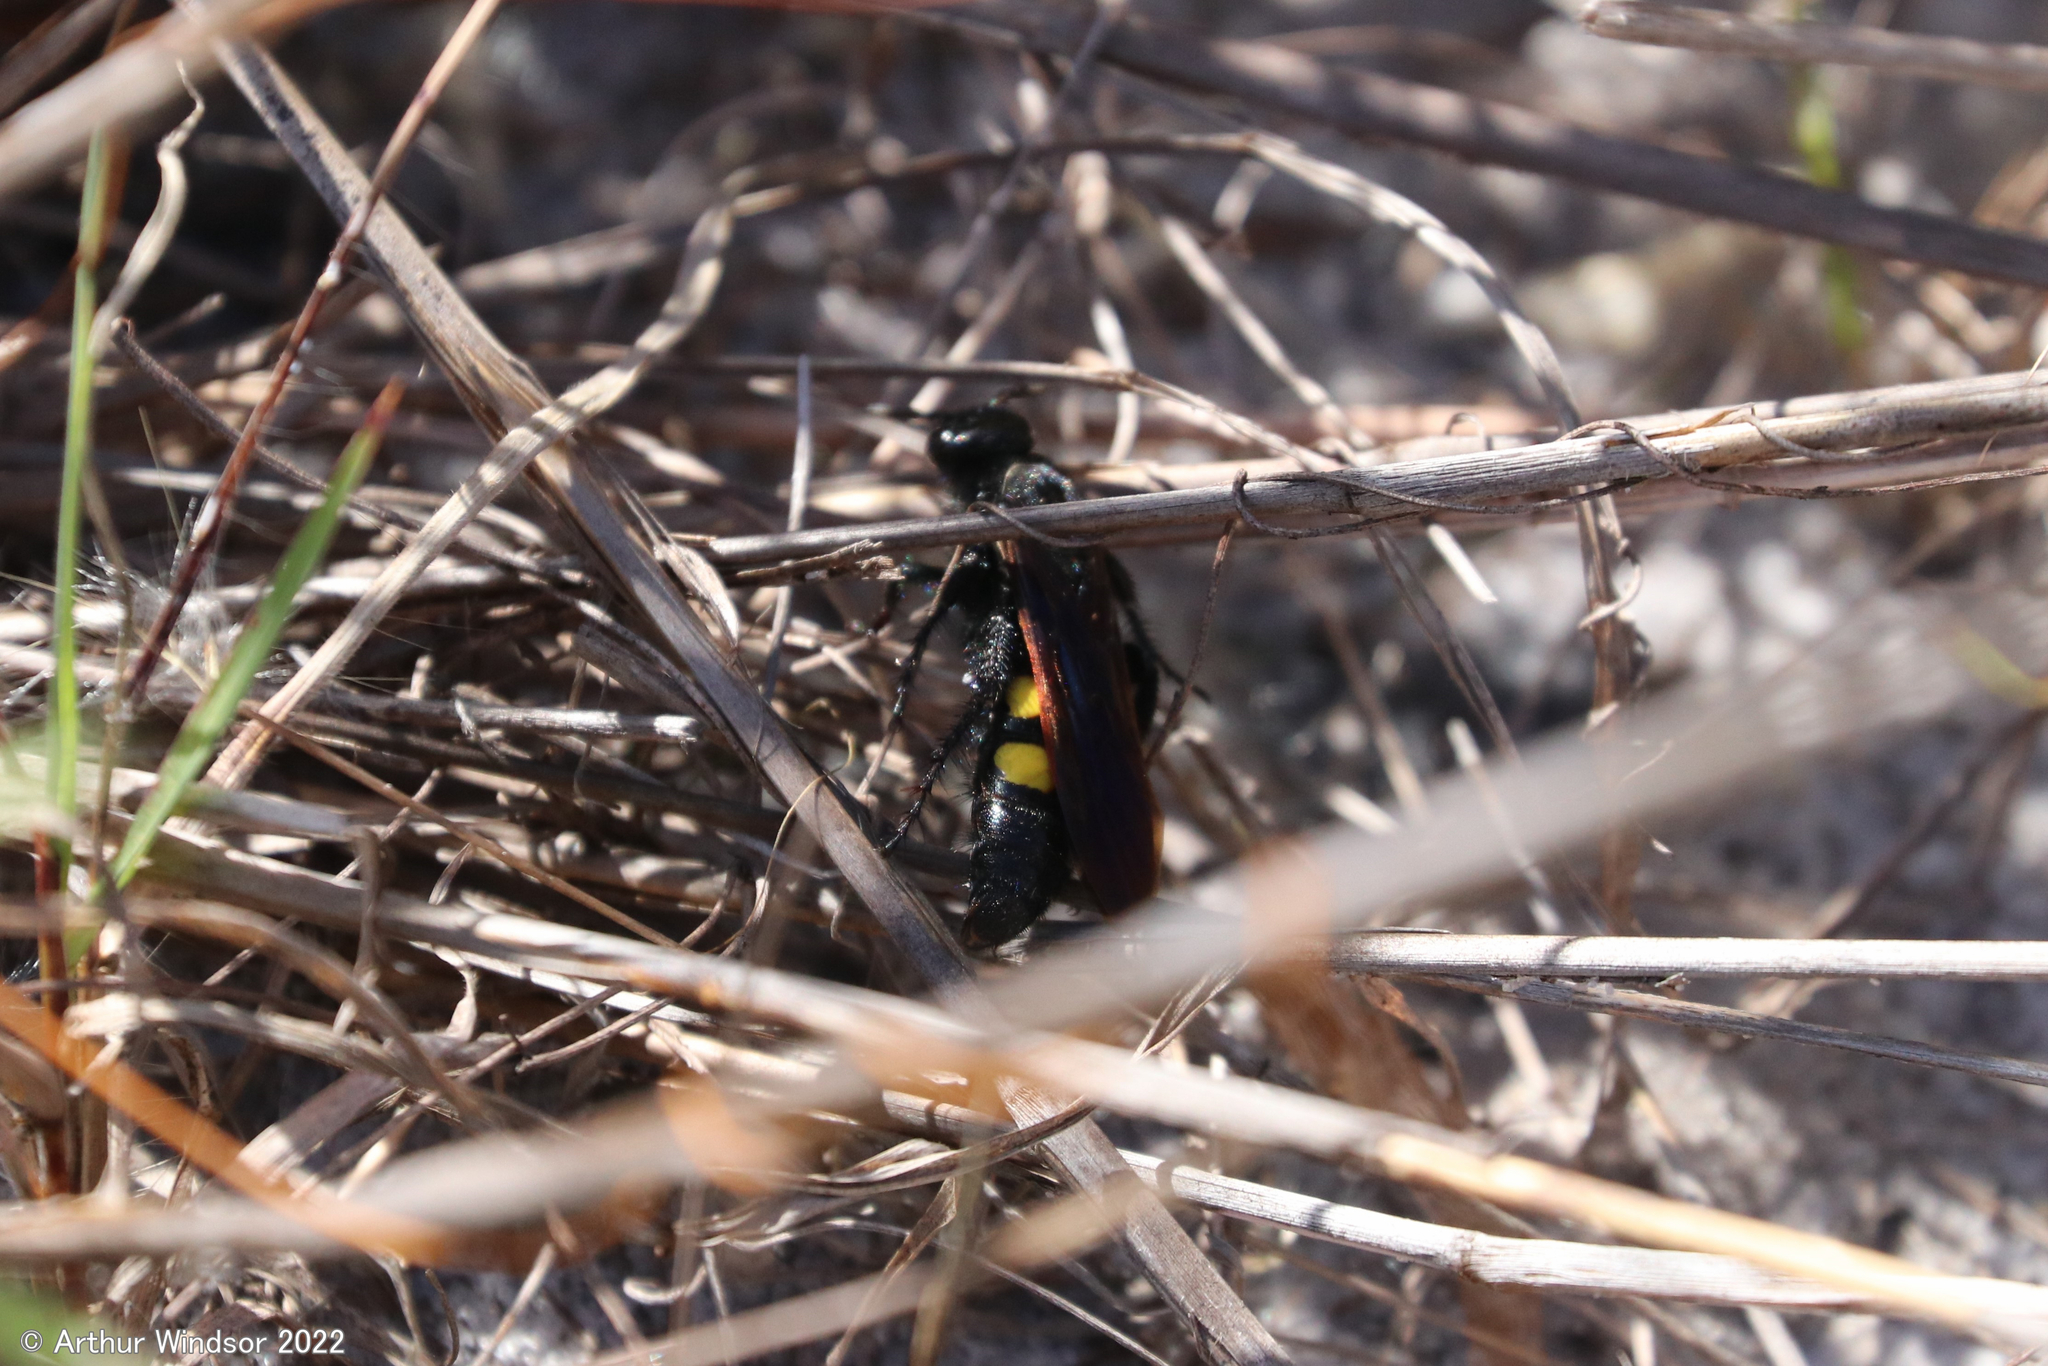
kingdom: Animalia
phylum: Arthropoda
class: Insecta
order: Hymenoptera
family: Scoliidae
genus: Pygodasis
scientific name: Pygodasis
